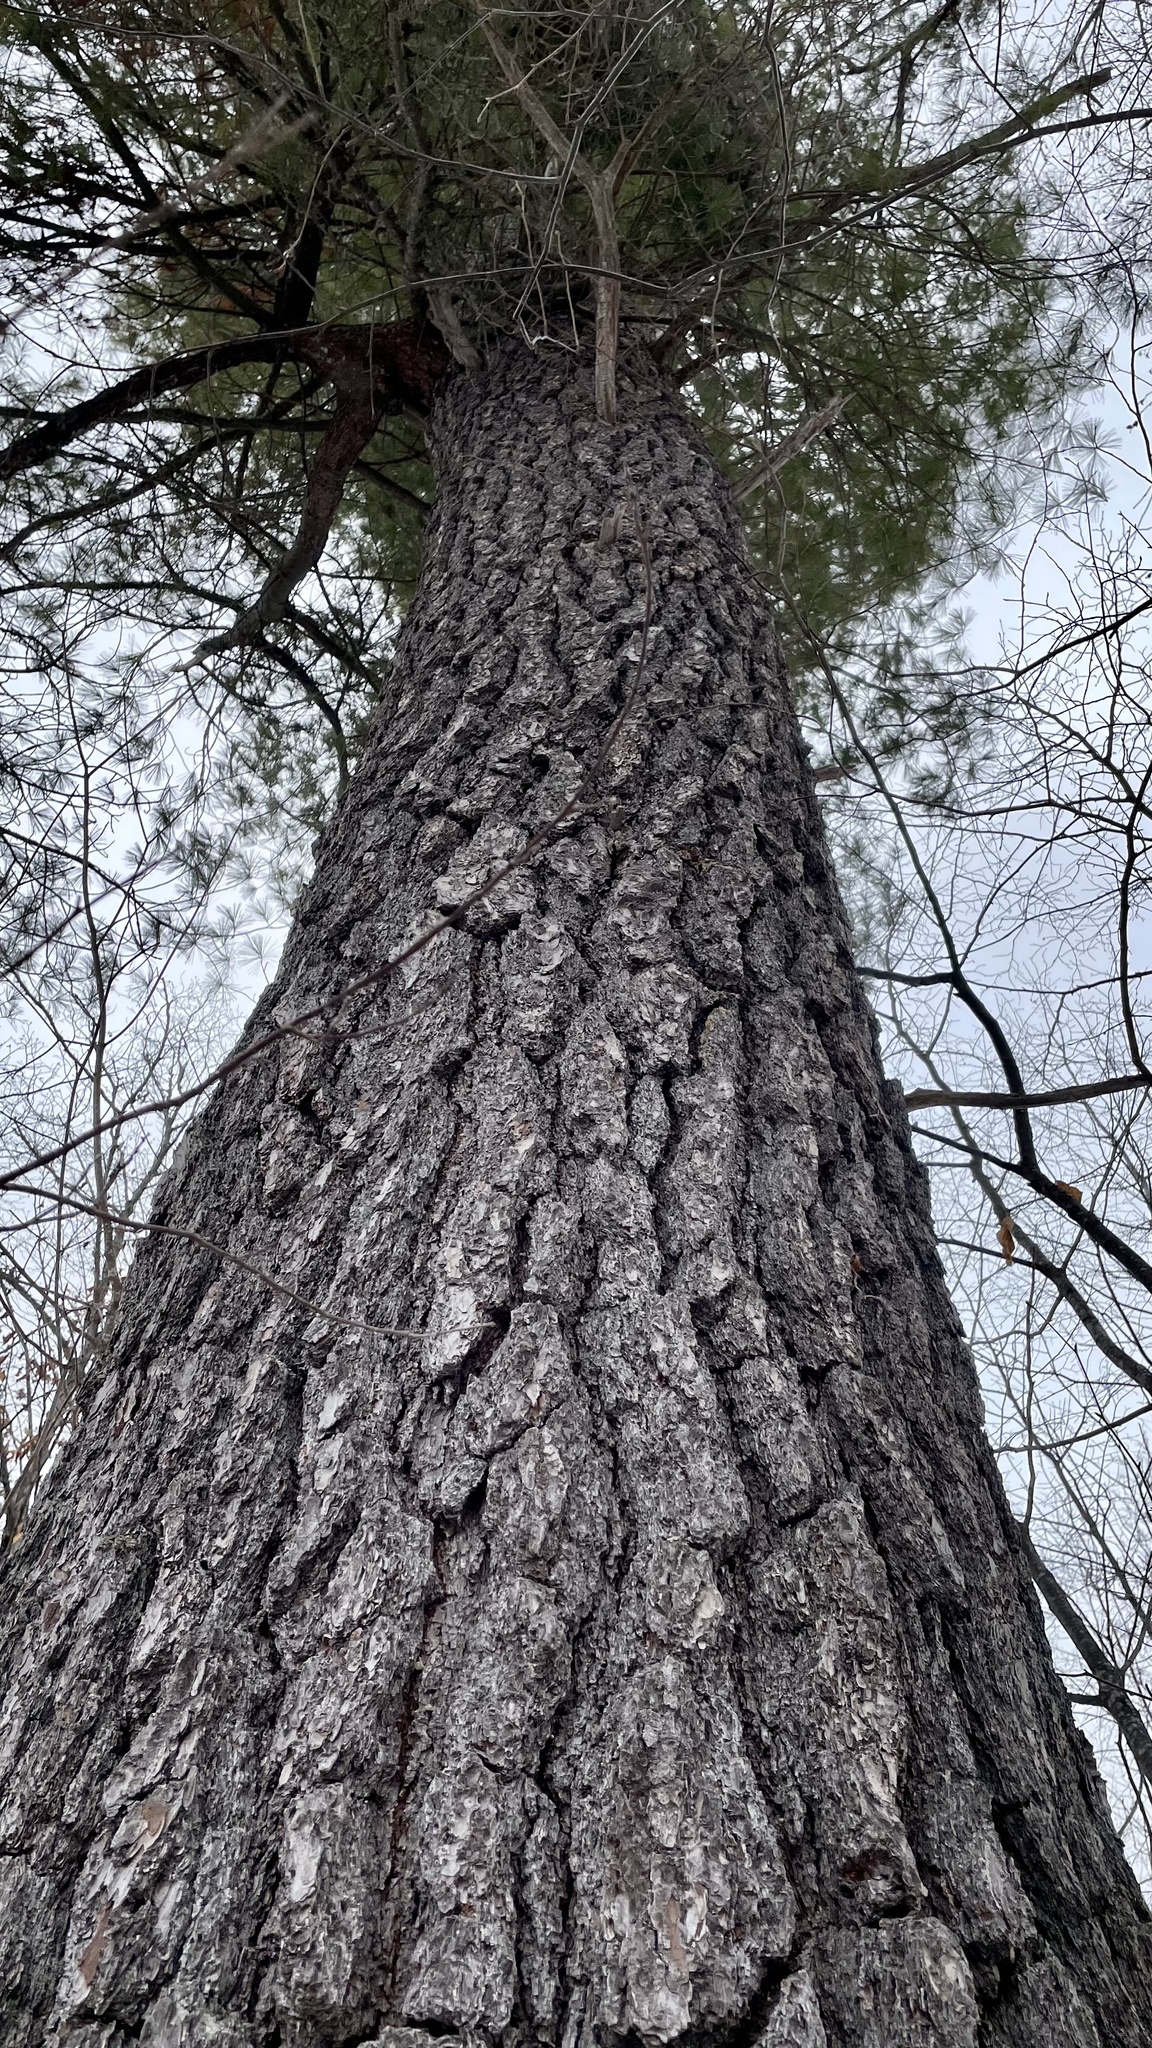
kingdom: Plantae
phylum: Tracheophyta
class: Pinopsida
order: Pinales
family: Pinaceae
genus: Pinus
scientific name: Pinus strobus
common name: Weymouth pine
